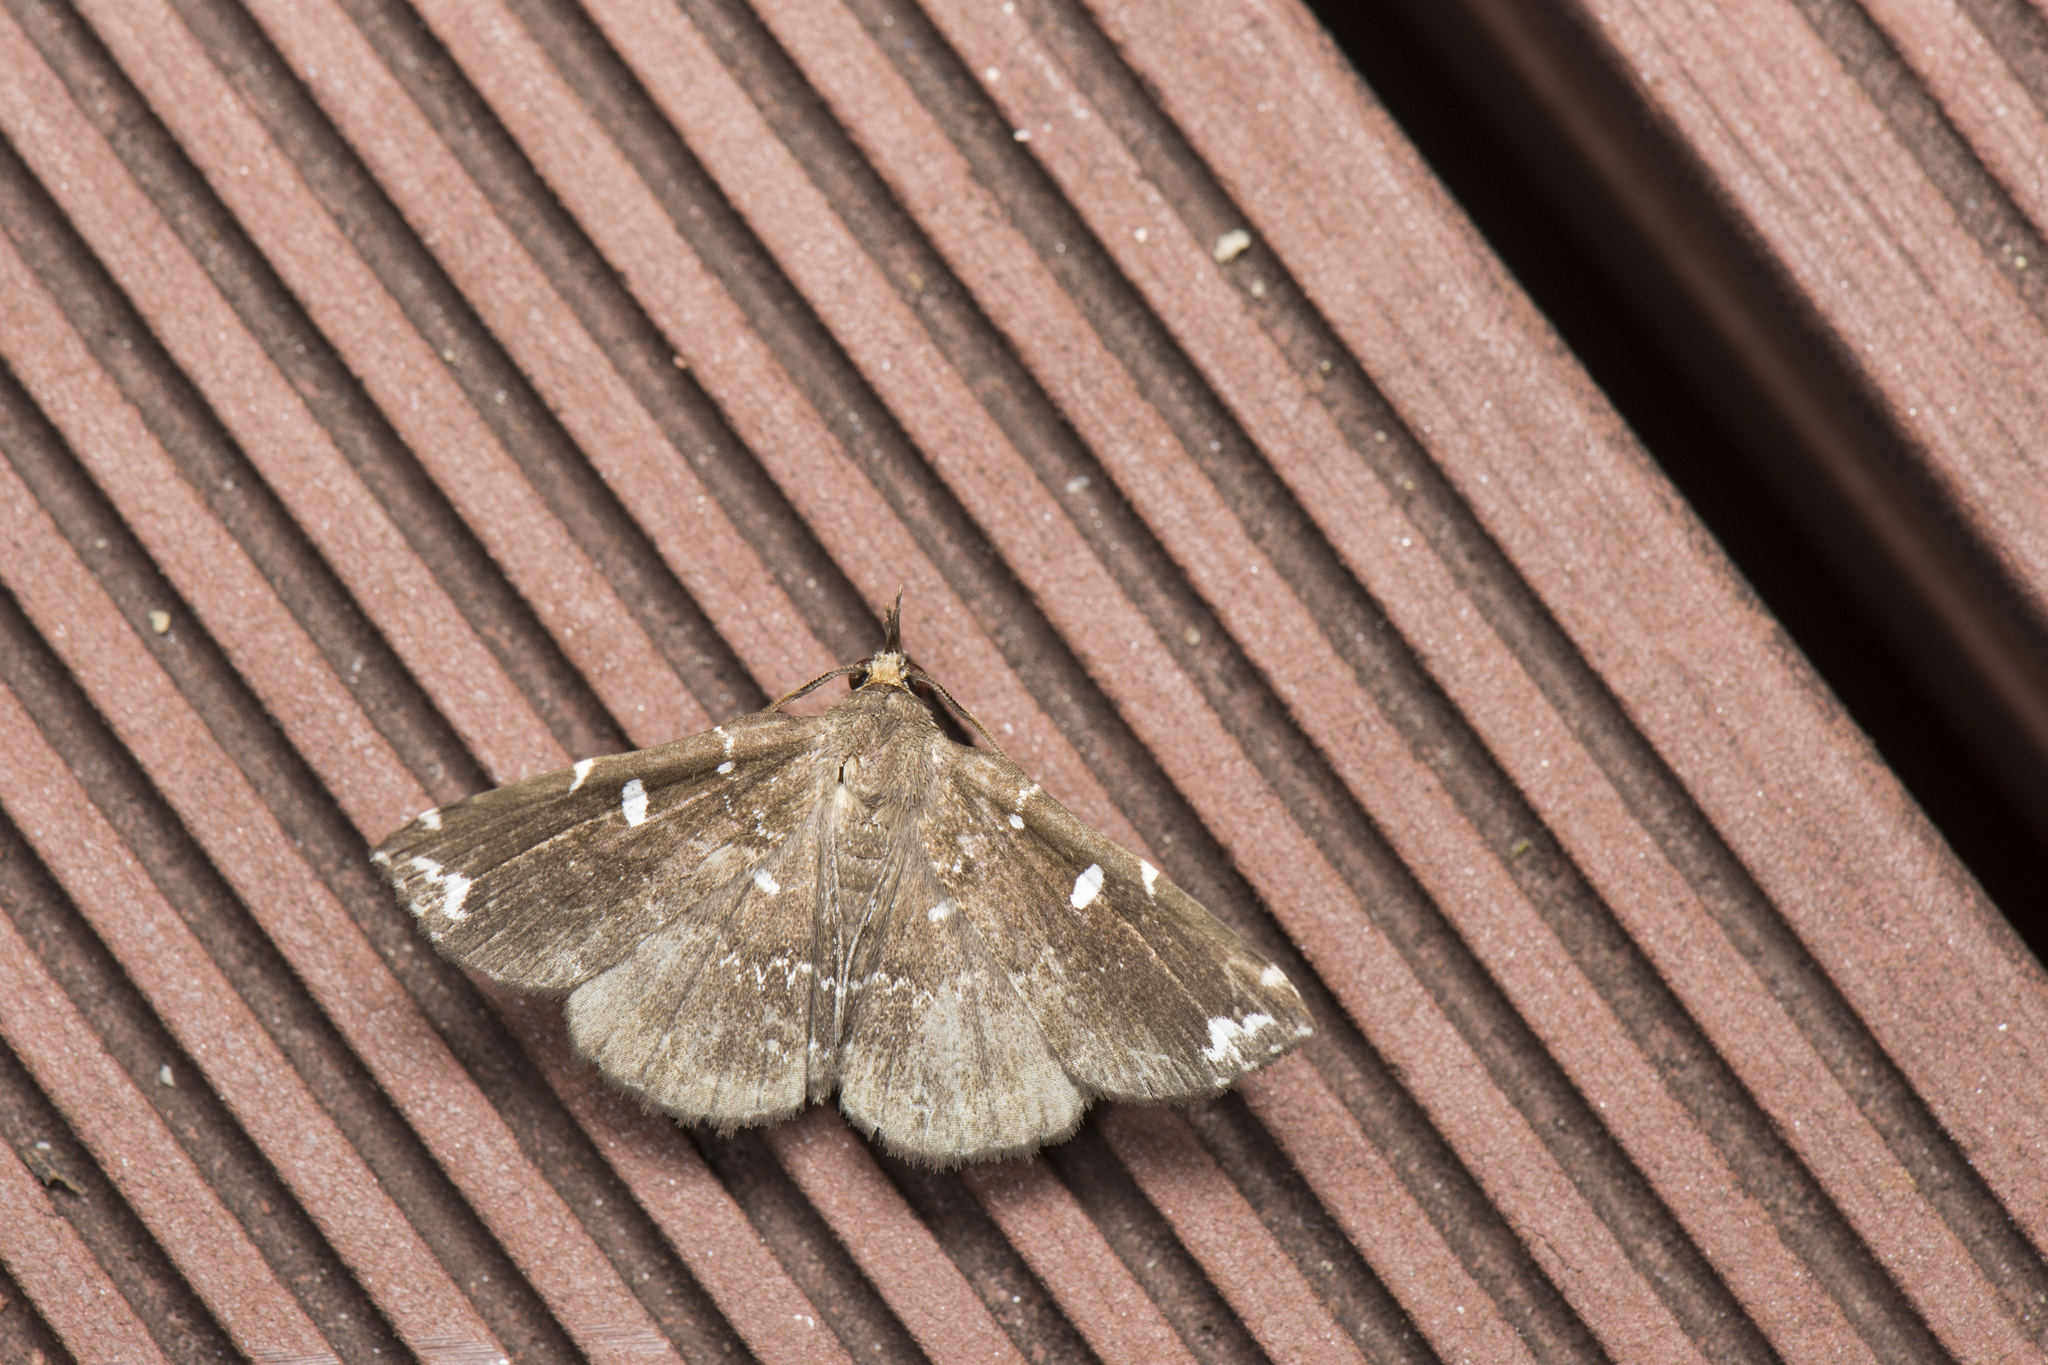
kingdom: Animalia
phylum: Arthropoda
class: Insecta
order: Lepidoptera
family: Erebidae
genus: Adrapsa
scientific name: Adrapsa simplex
